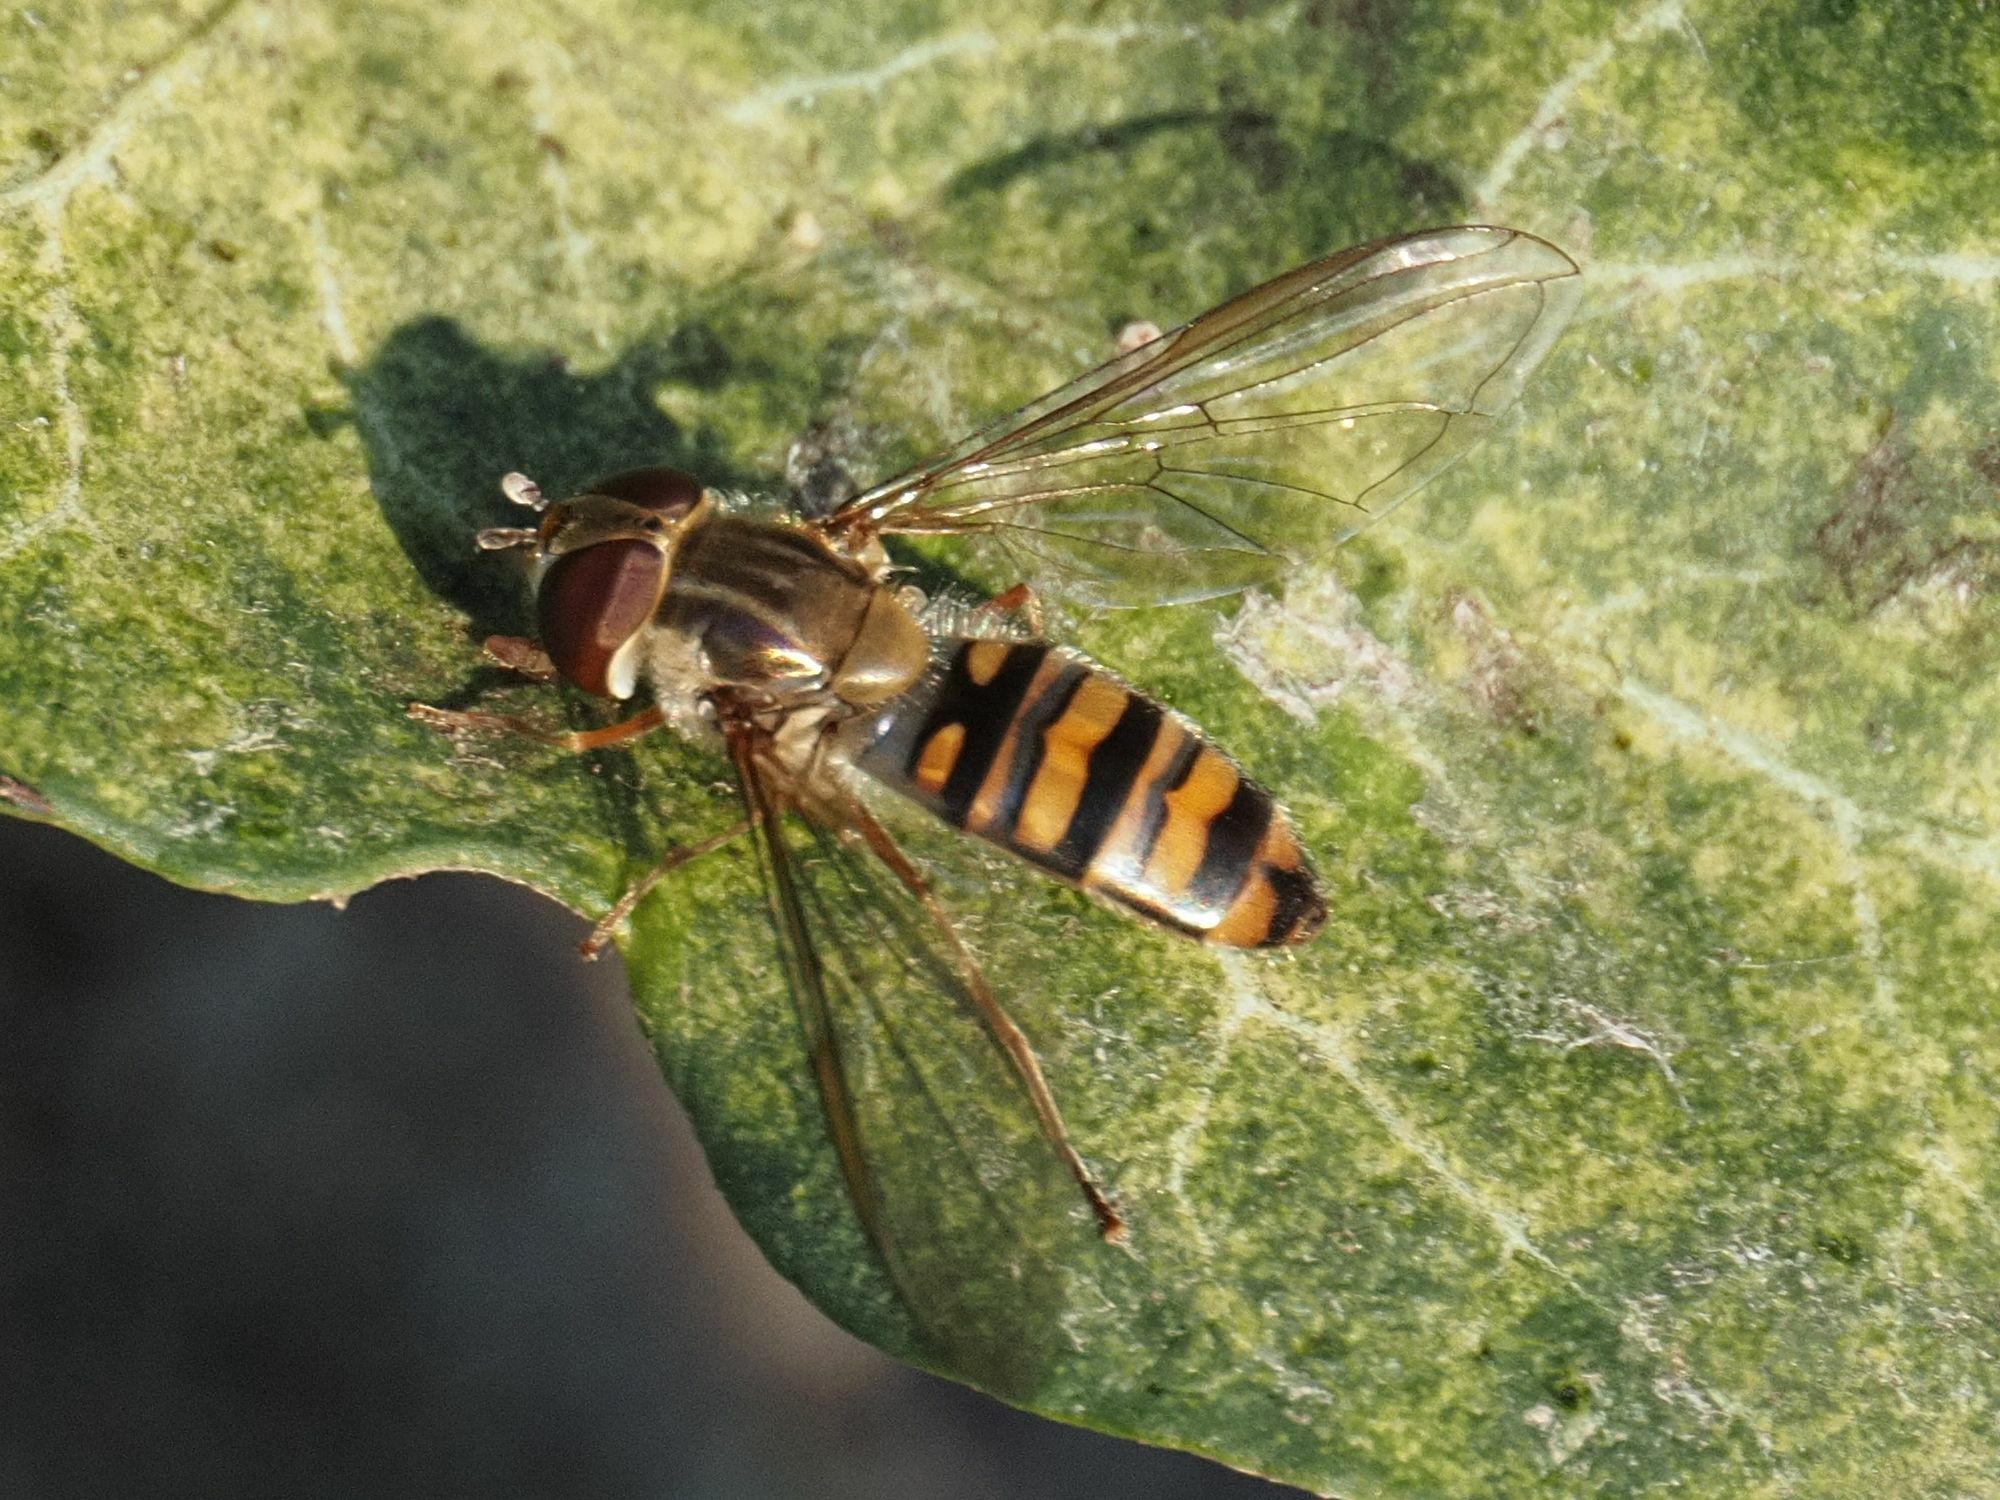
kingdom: Animalia
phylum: Arthropoda
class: Insecta
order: Diptera
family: Syrphidae
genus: Episyrphus
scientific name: Episyrphus balteatus
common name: Marmalade hoverfly
